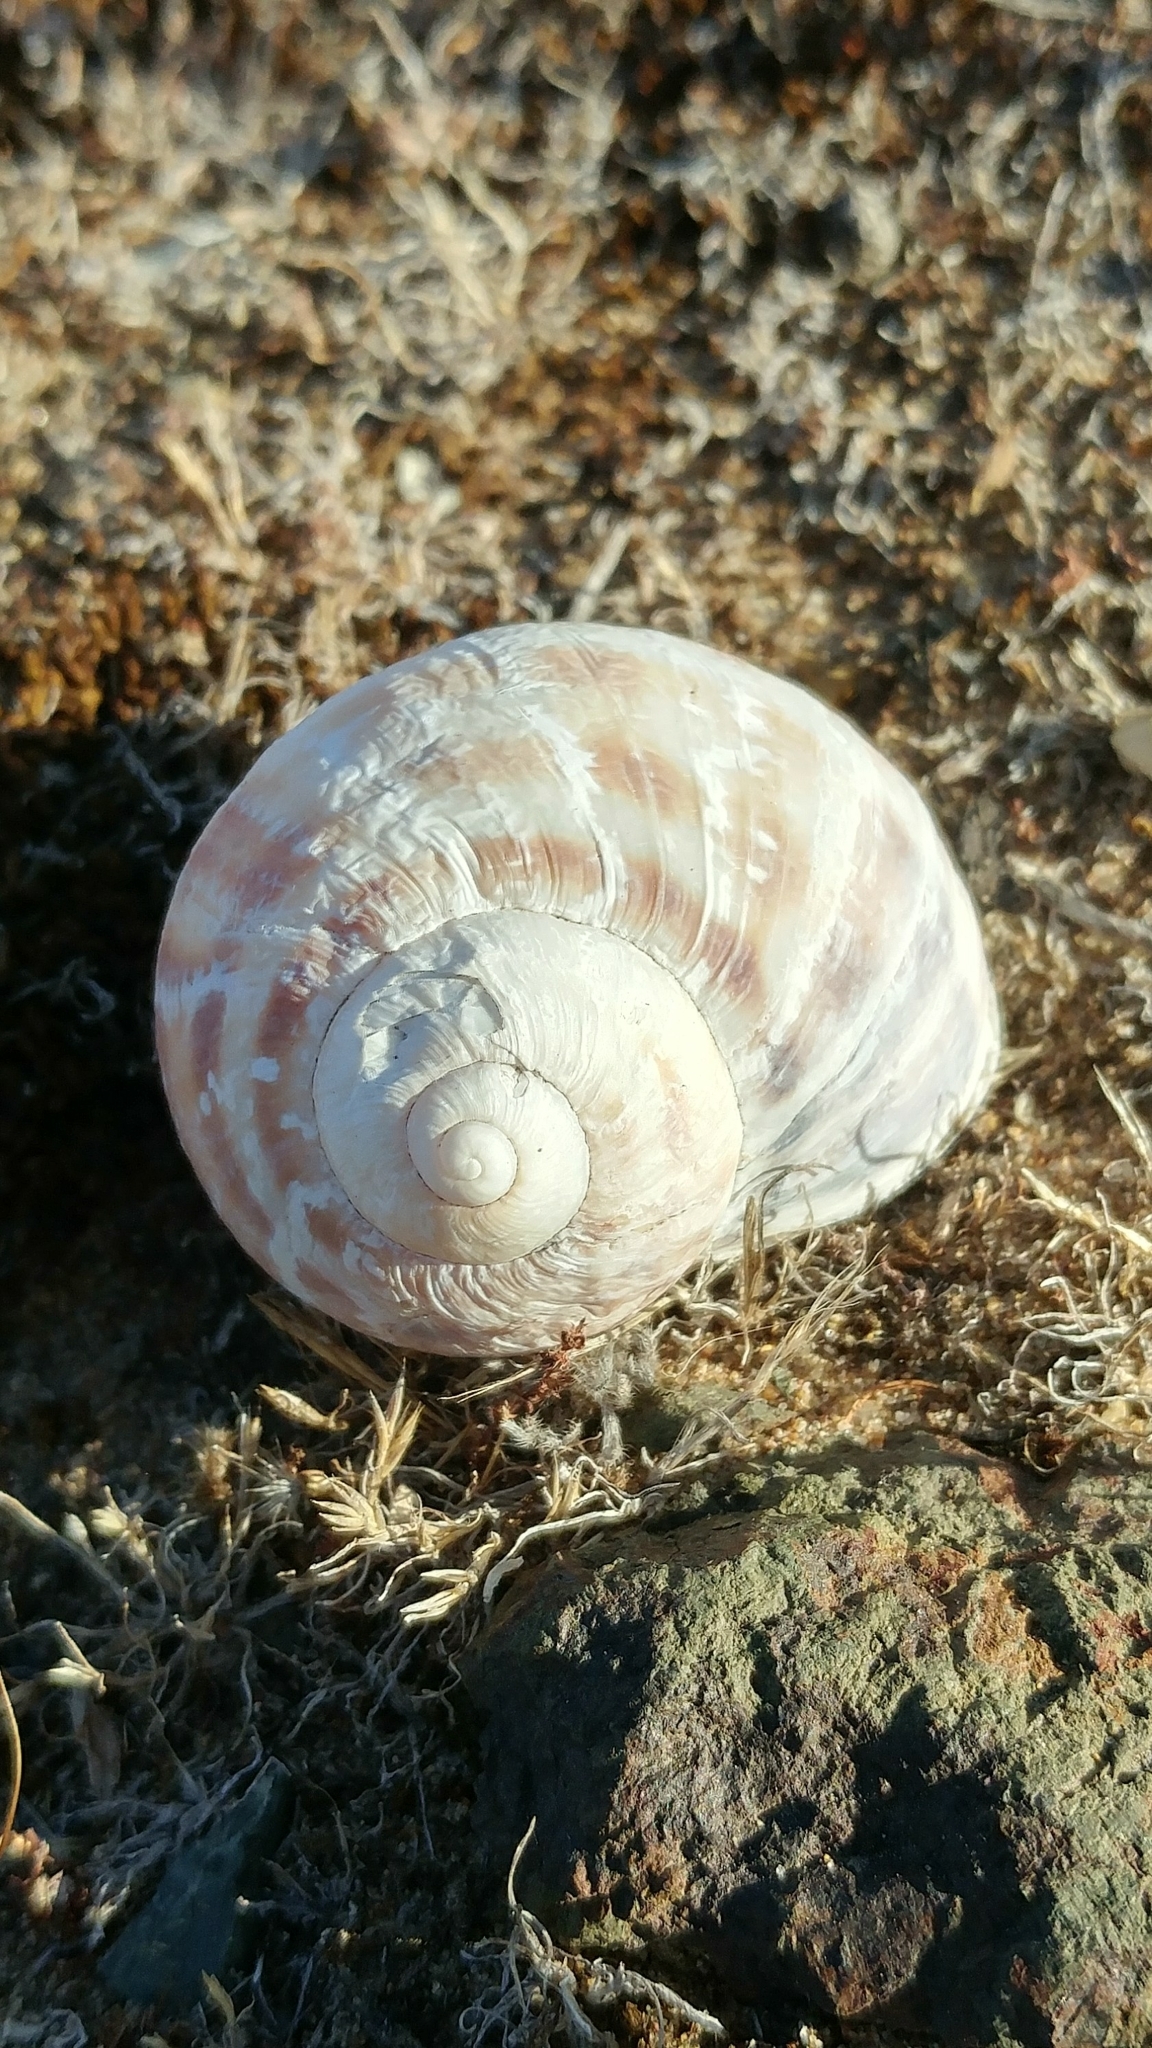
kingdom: Animalia
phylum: Mollusca
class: Gastropoda
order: Stylommatophora
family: Helicidae
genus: Cornu
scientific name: Cornu aspersum
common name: Brown garden snail
